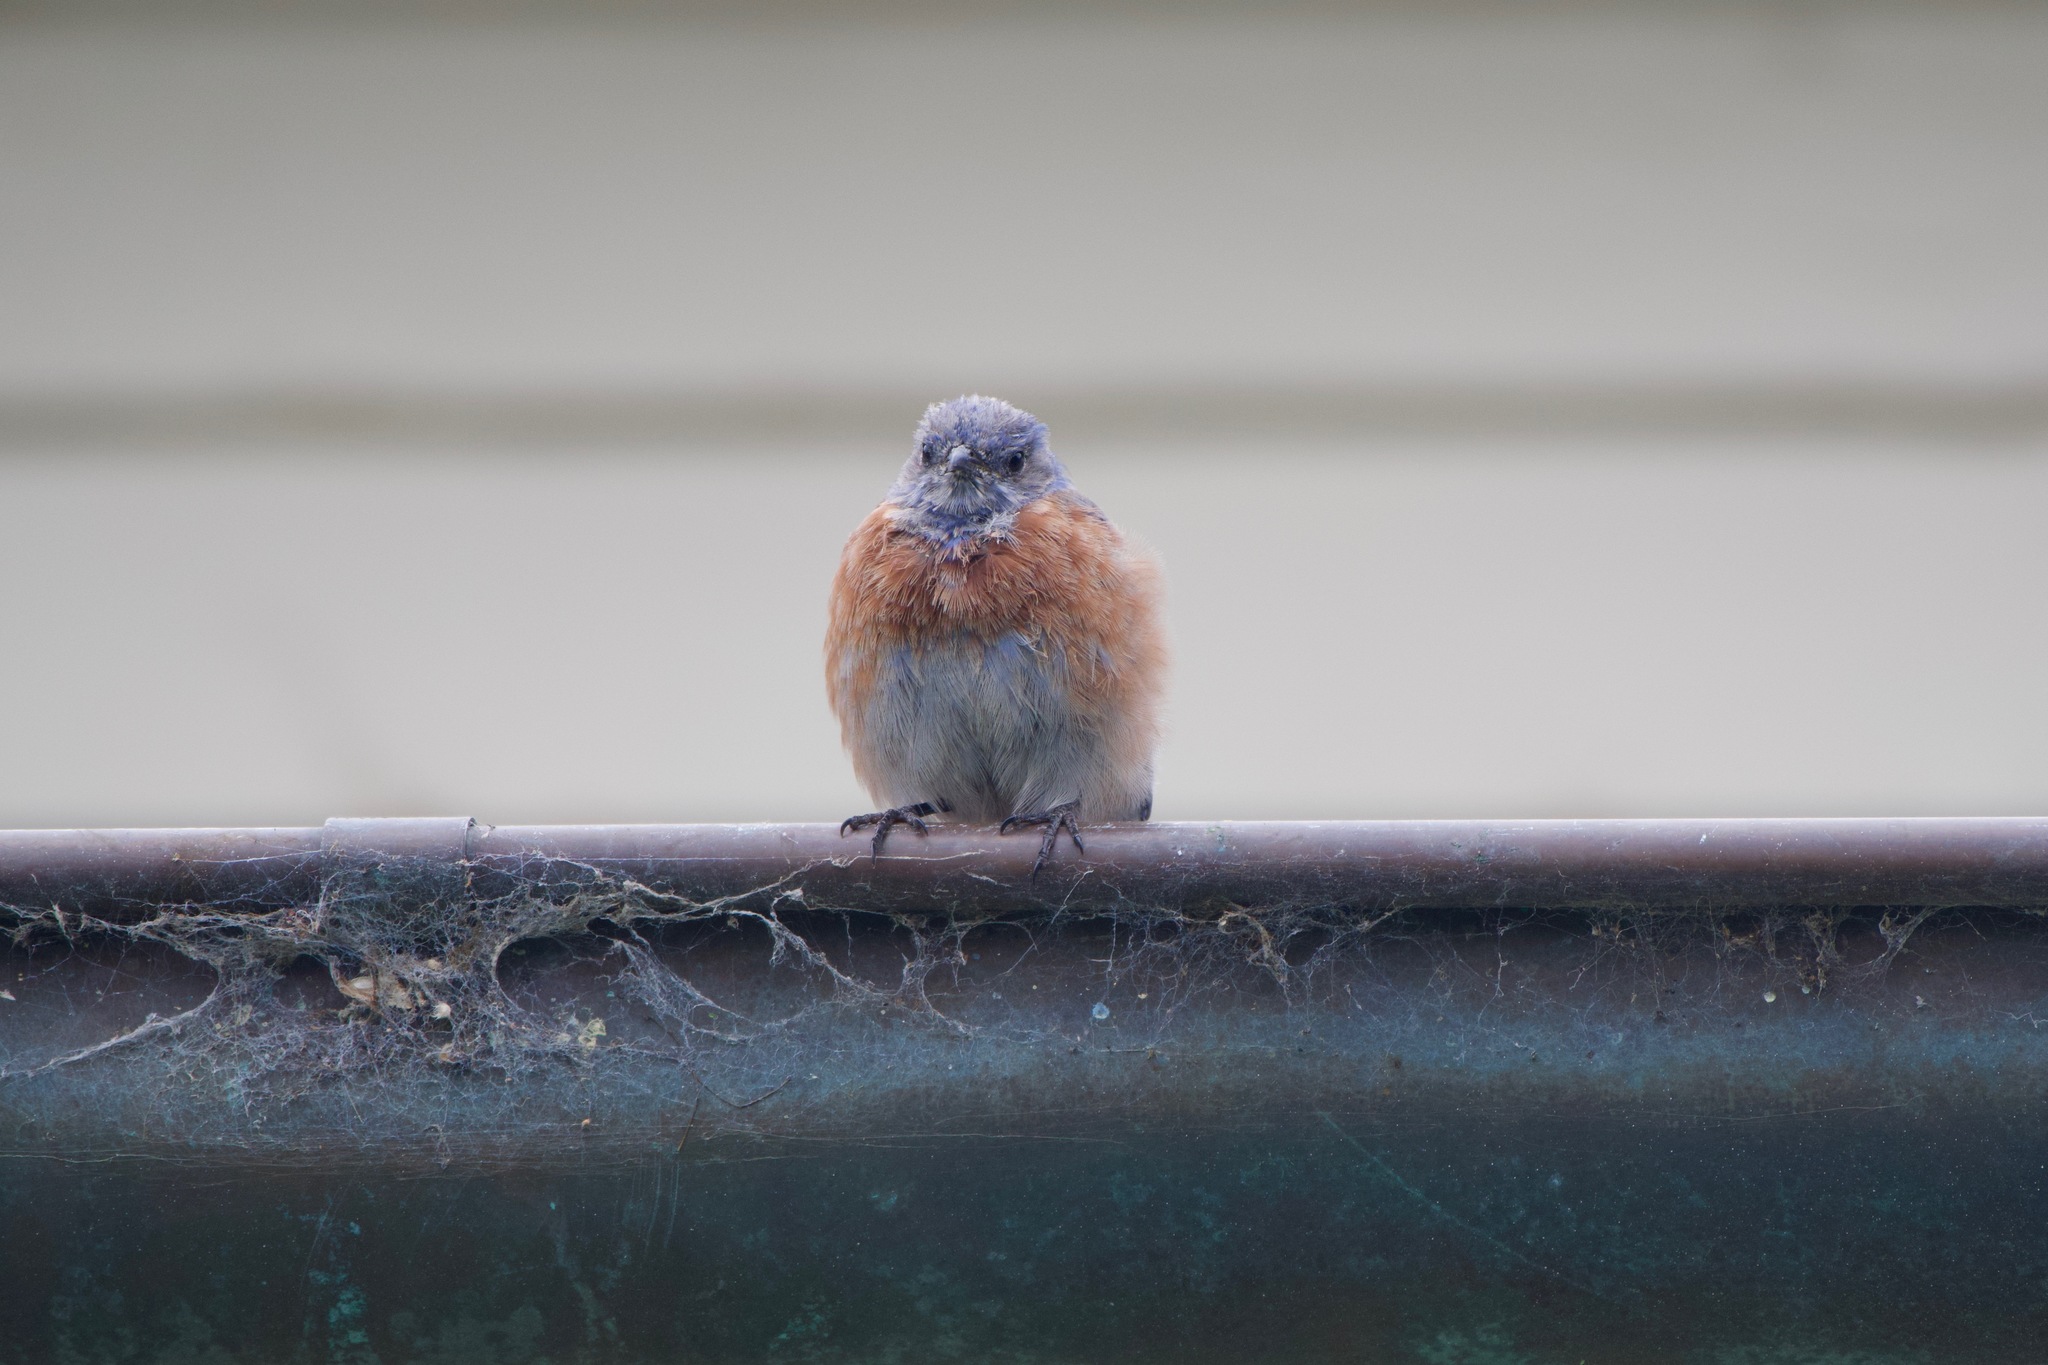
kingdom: Animalia
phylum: Chordata
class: Aves
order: Passeriformes
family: Turdidae
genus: Sialia
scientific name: Sialia mexicana
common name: Western bluebird
